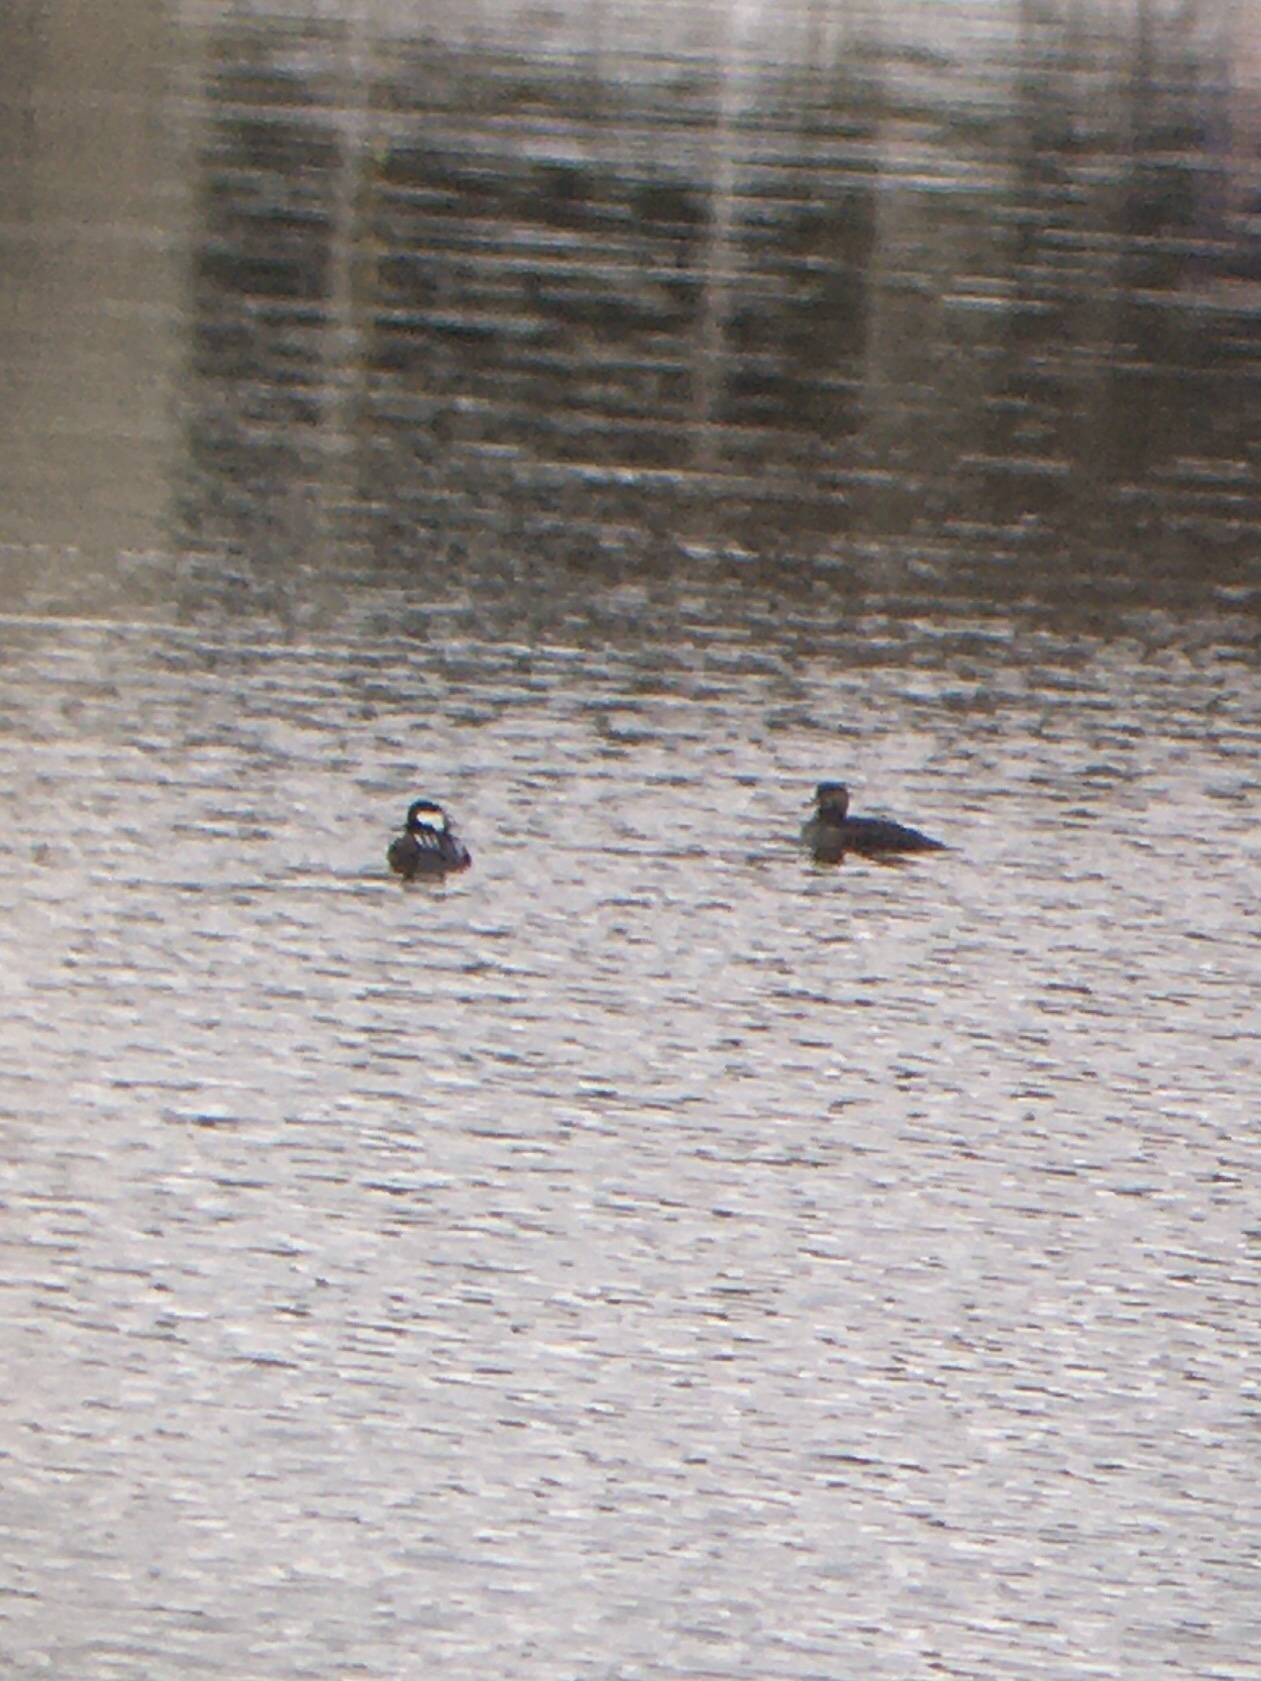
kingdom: Animalia
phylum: Chordata
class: Aves
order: Anseriformes
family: Anatidae
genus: Lophodytes
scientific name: Lophodytes cucullatus
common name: Hooded merganser
